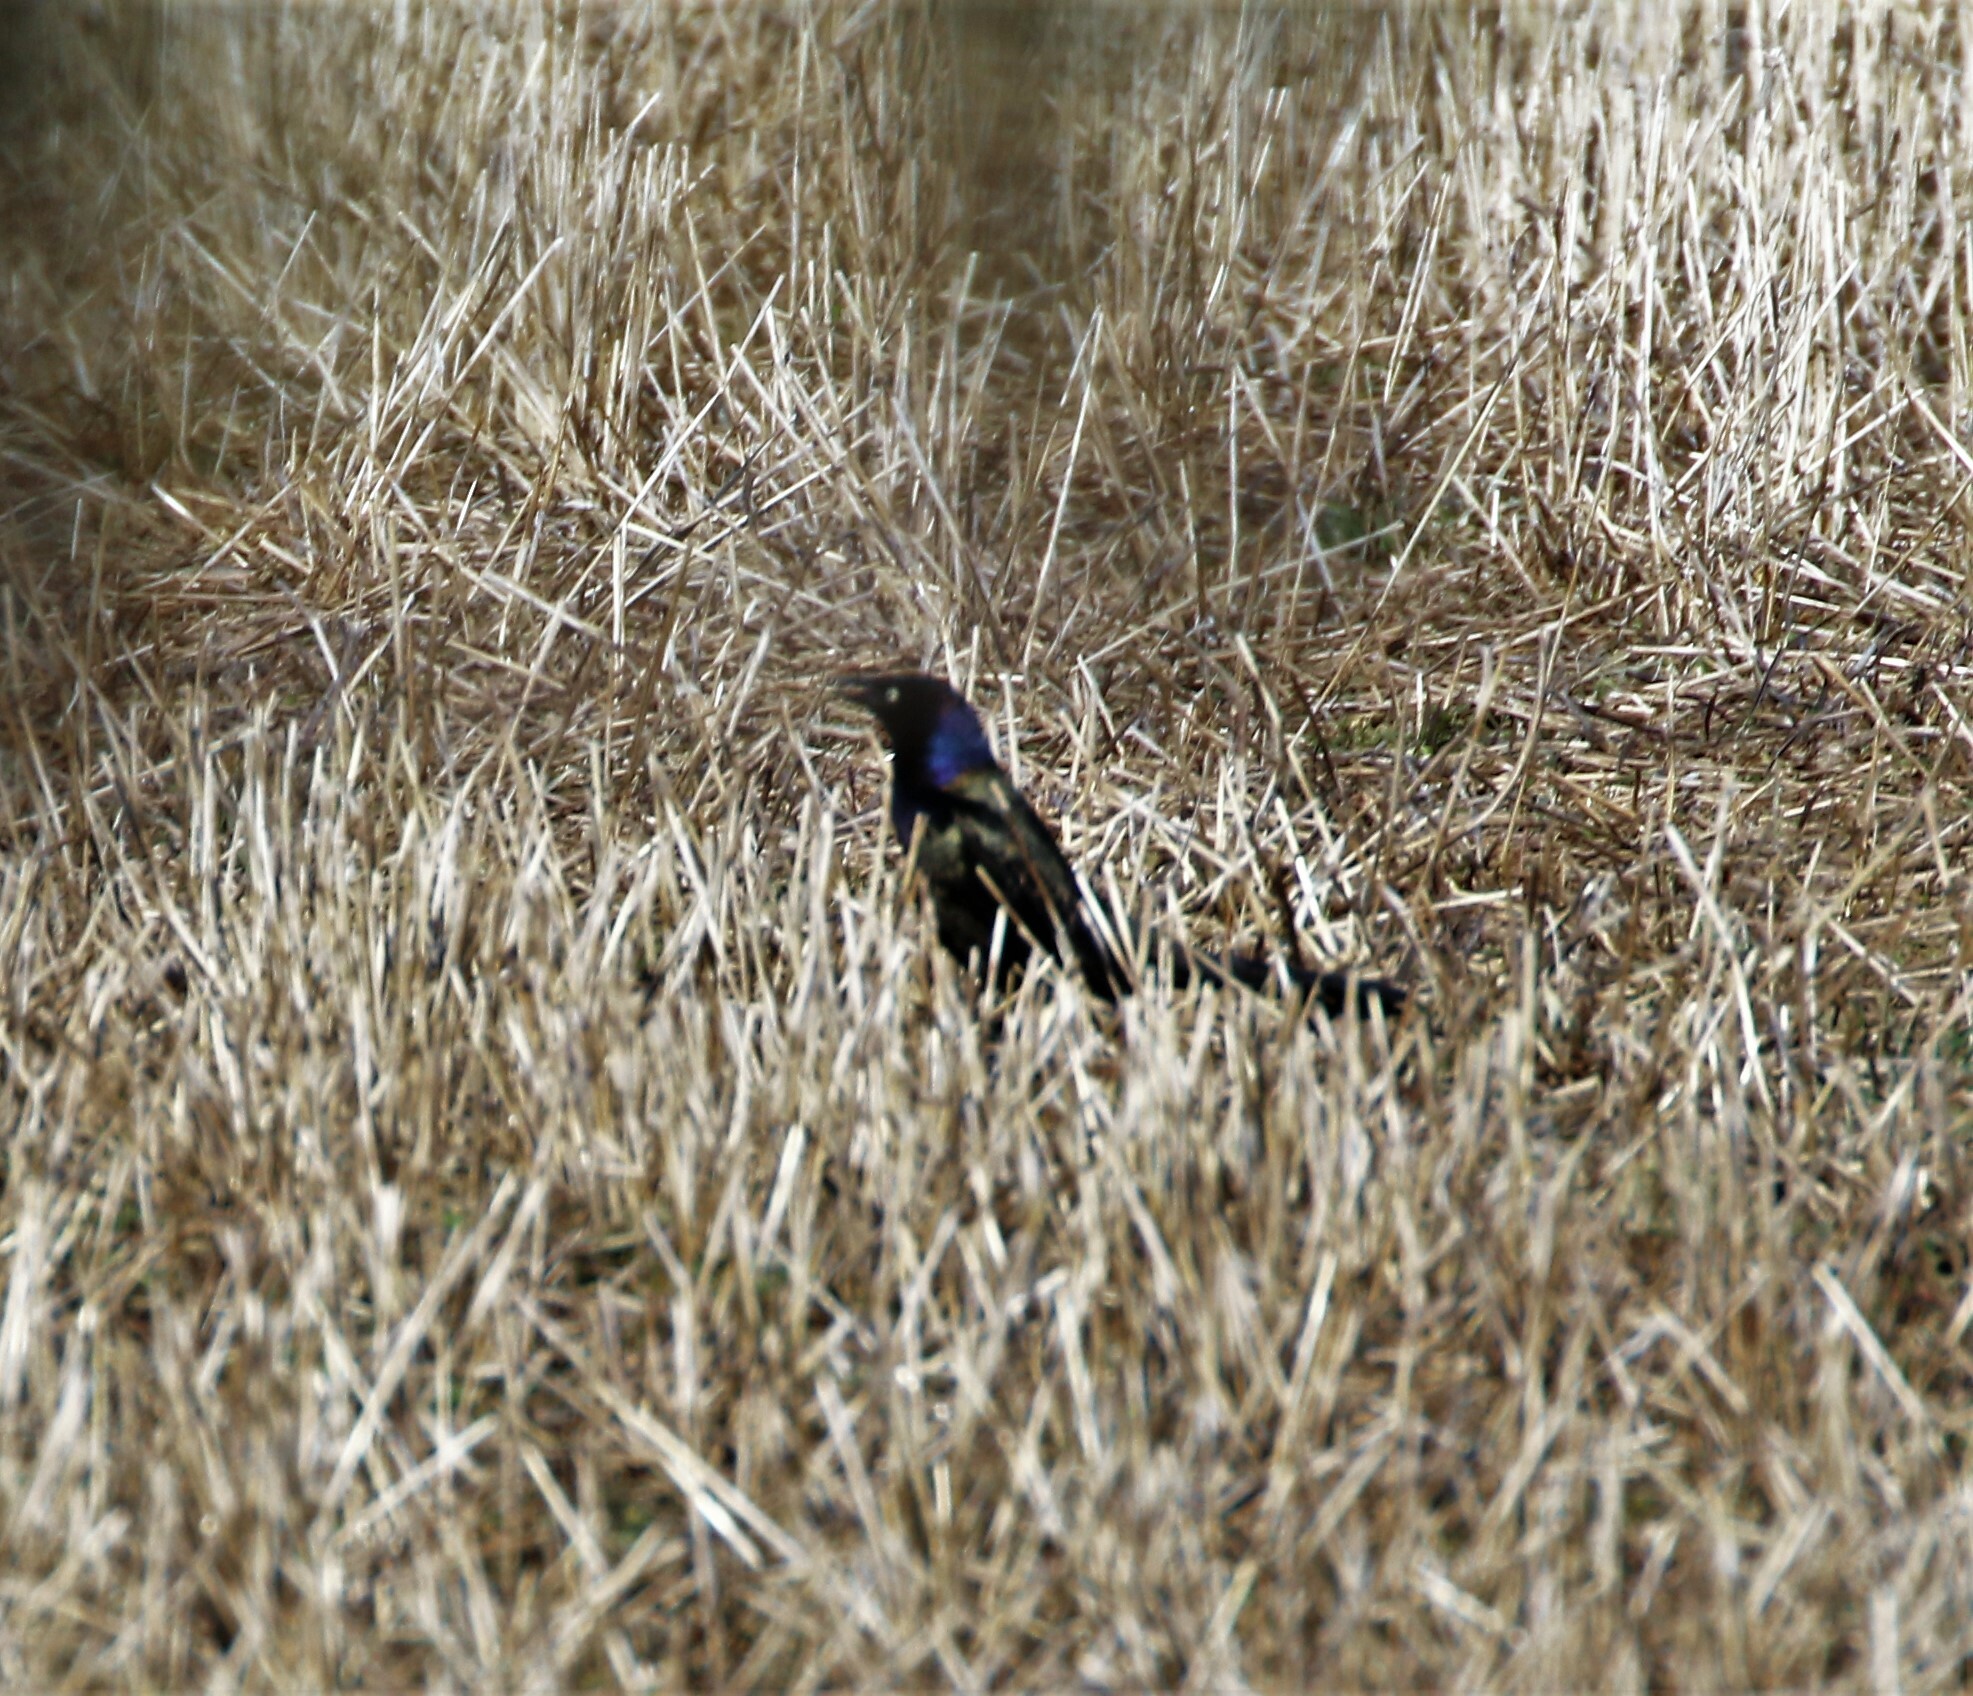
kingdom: Animalia
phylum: Chordata
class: Aves
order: Passeriformes
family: Icteridae
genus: Quiscalus
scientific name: Quiscalus quiscula
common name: Common grackle
